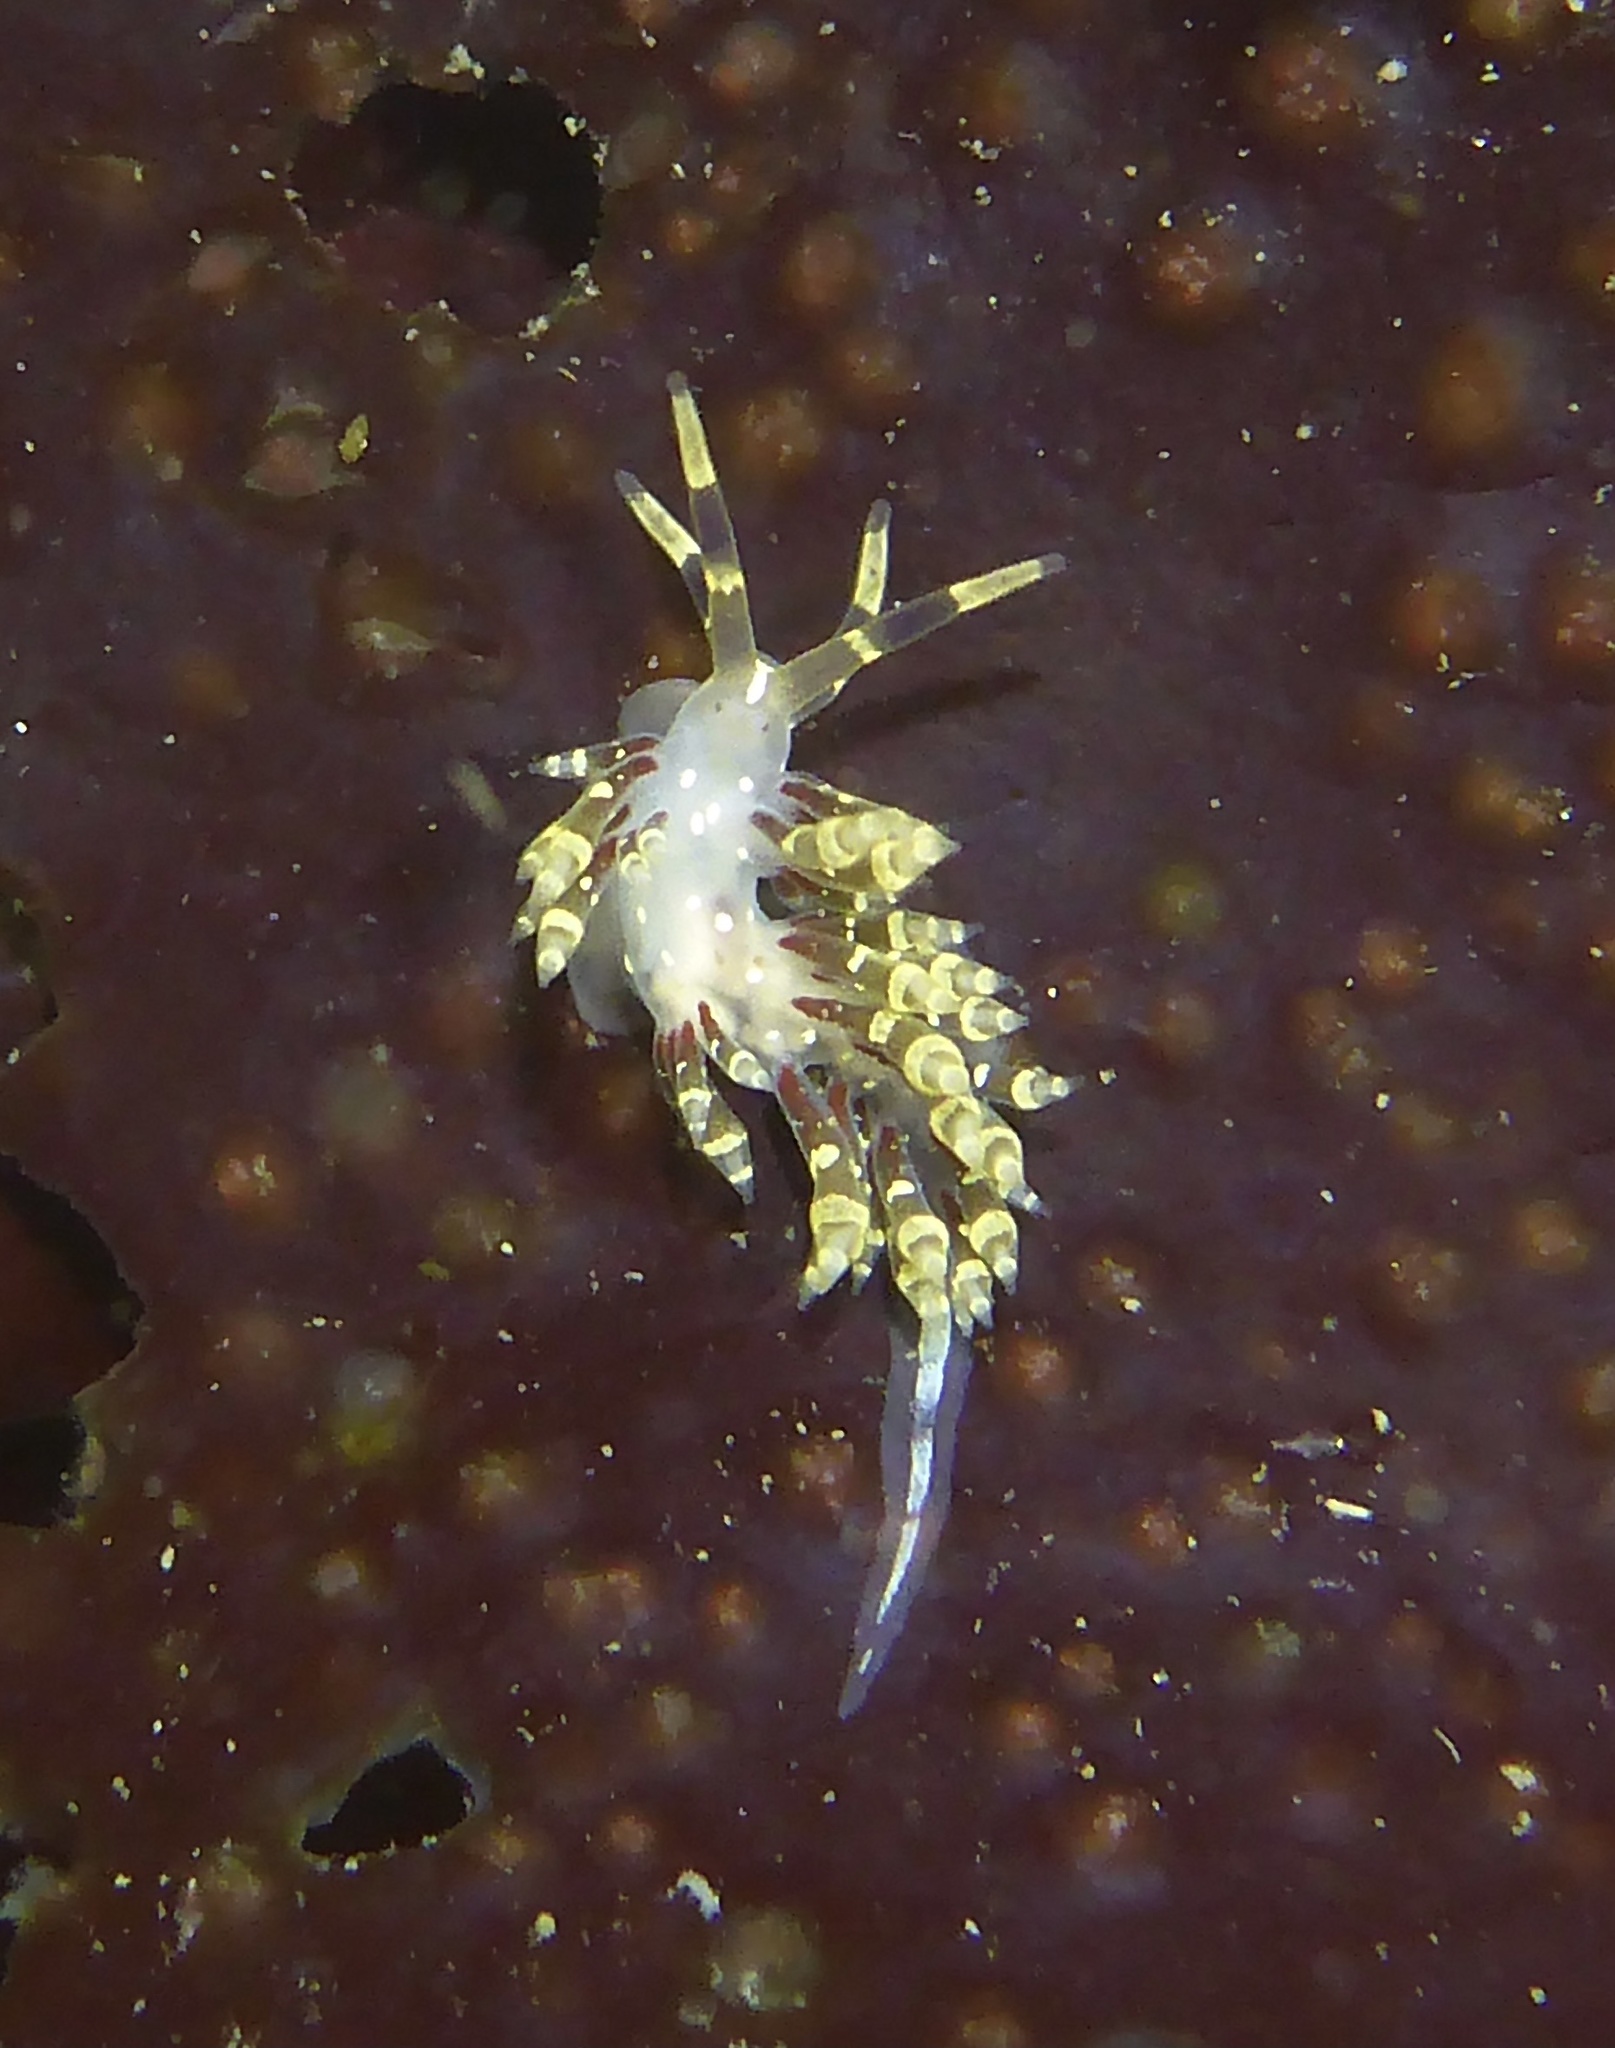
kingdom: Animalia
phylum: Mollusca
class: Gastropoda
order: Nudibranchia
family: Abronicidae
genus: Abronica
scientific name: Abronica abronia
